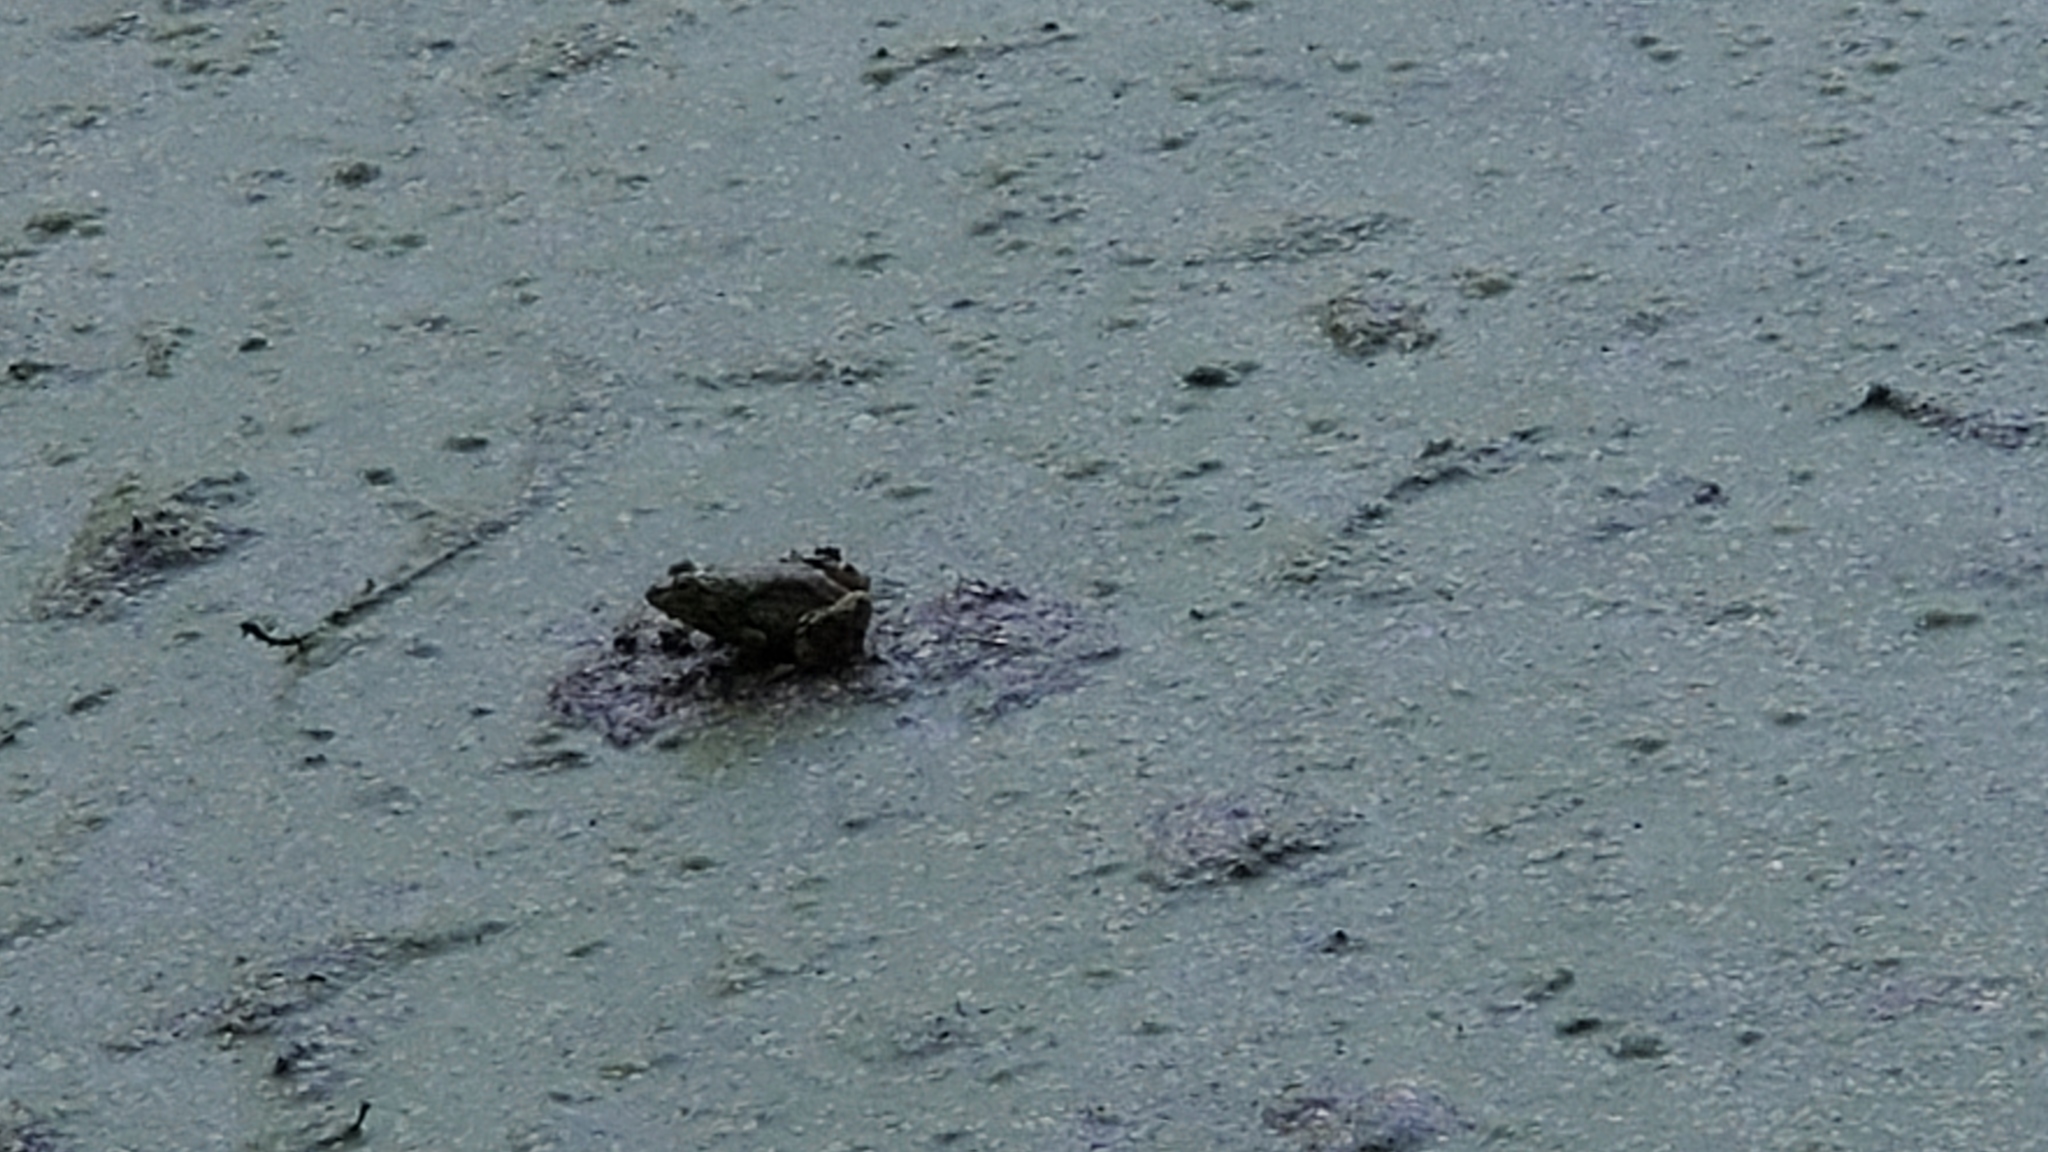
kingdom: Animalia
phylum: Chordata
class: Amphibia
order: Anura
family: Ranidae
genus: Lithobates
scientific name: Lithobates catesbeianus
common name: American bullfrog
